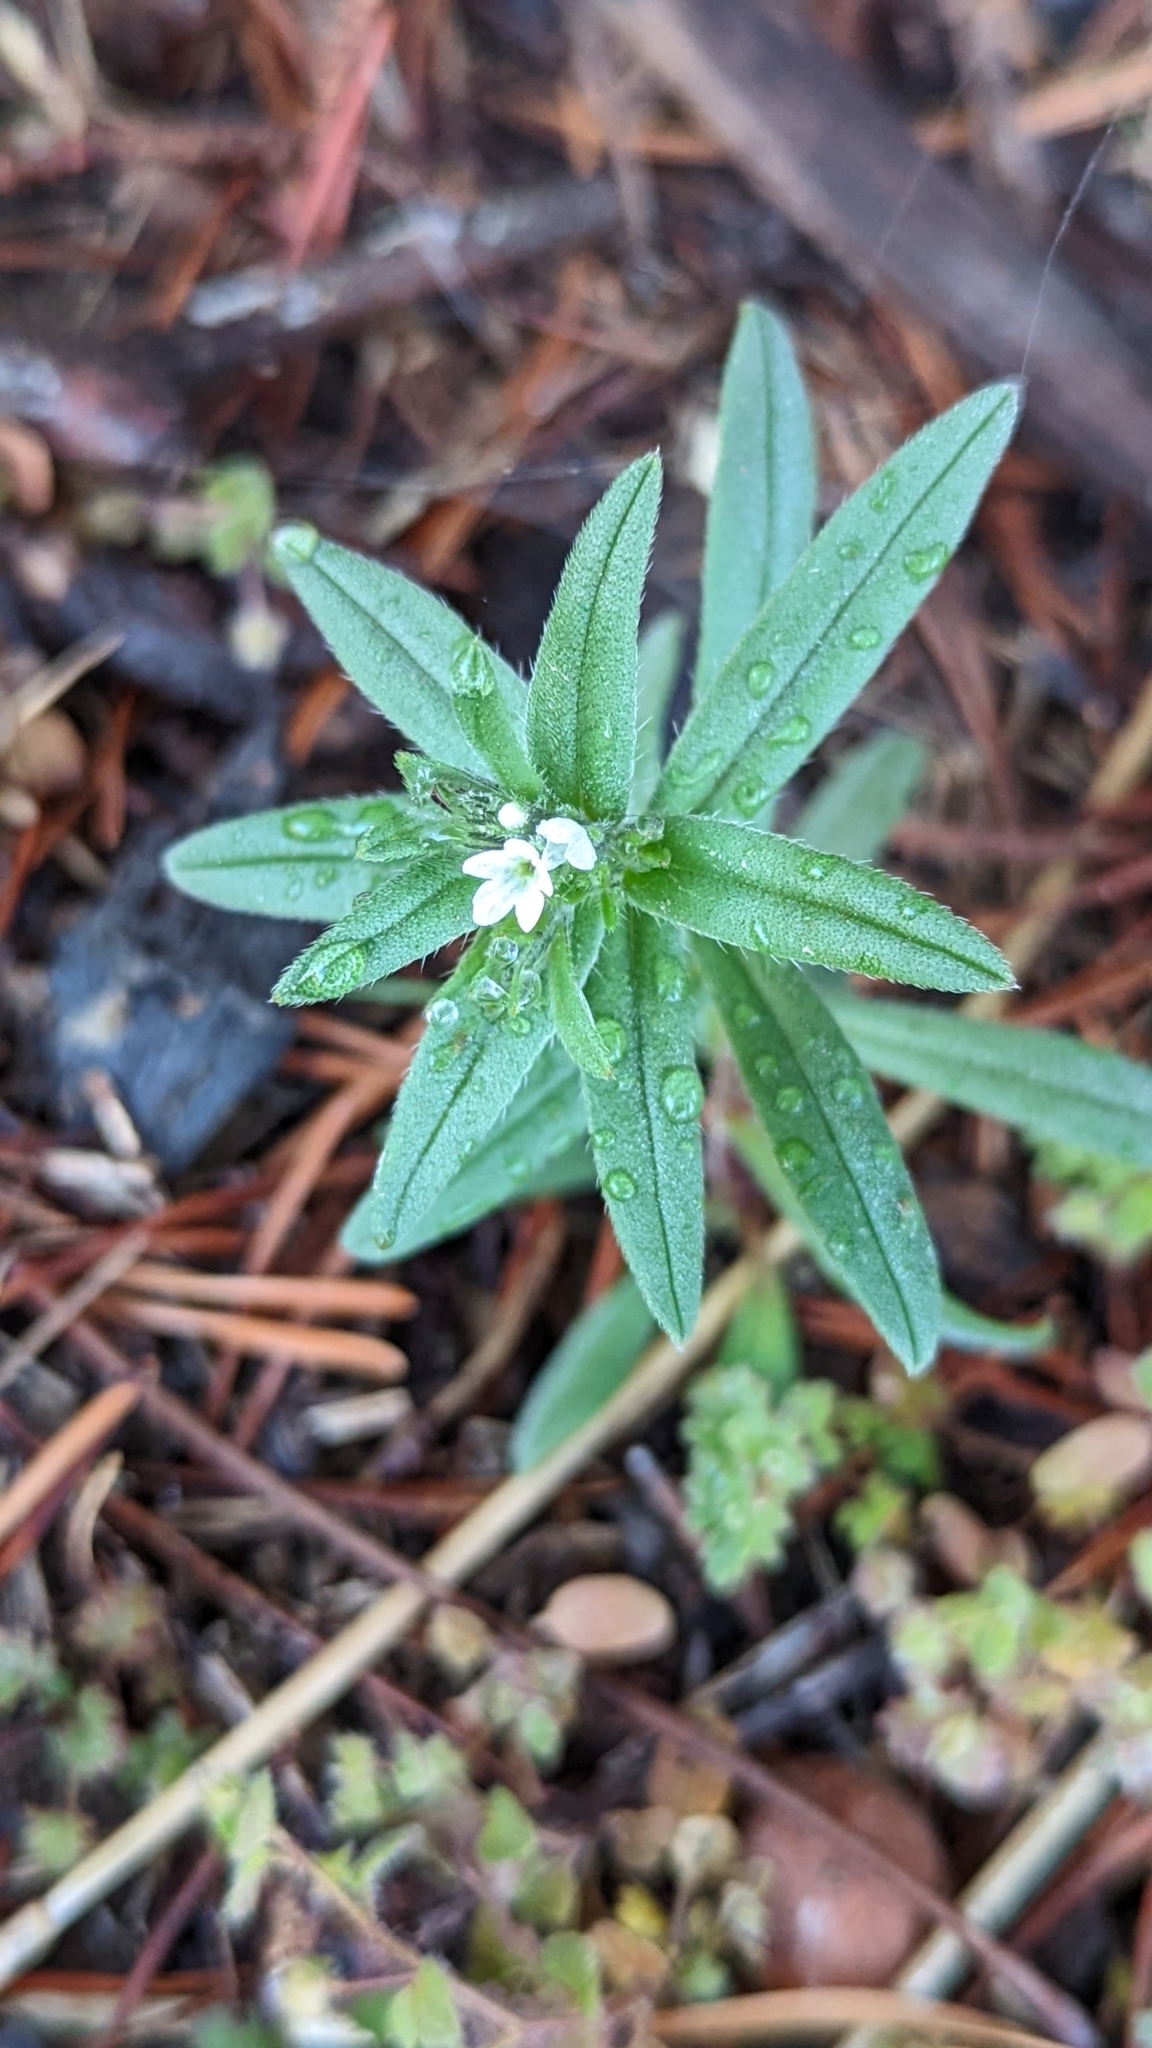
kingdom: Plantae
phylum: Tracheophyta
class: Magnoliopsida
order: Boraginales
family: Boraginaceae
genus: Buglossoides
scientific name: Buglossoides arvensis
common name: Corn gromwell
